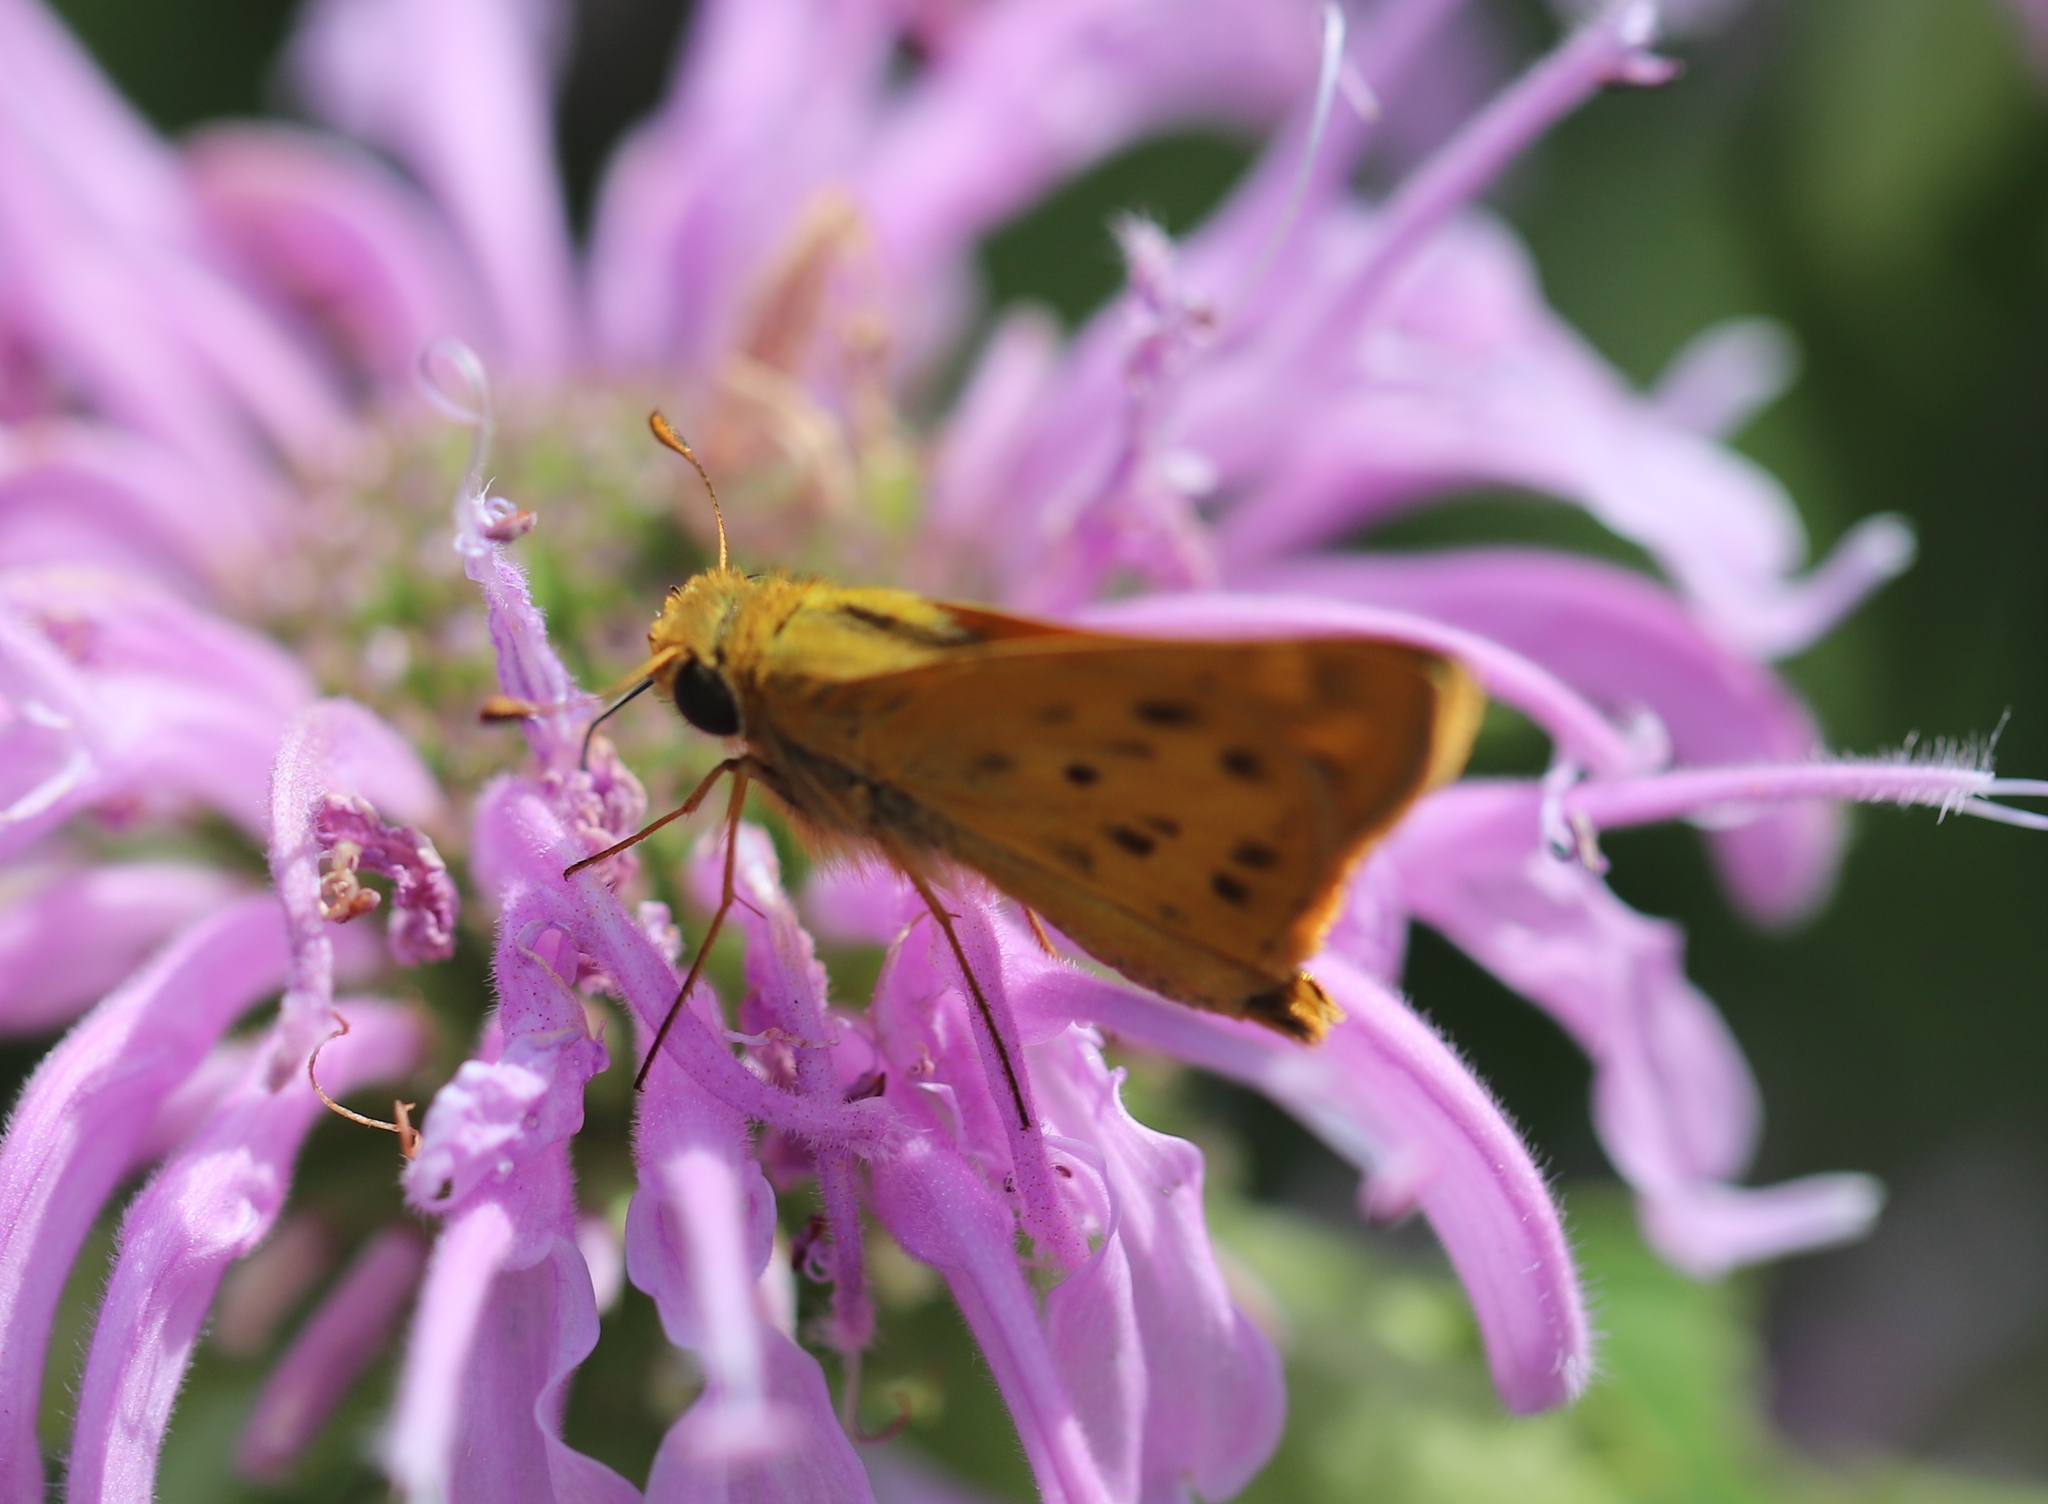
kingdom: Animalia
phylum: Arthropoda
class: Insecta
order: Lepidoptera
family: Hesperiidae
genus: Hylephila
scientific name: Hylephila phyleus
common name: Fiery skipper
